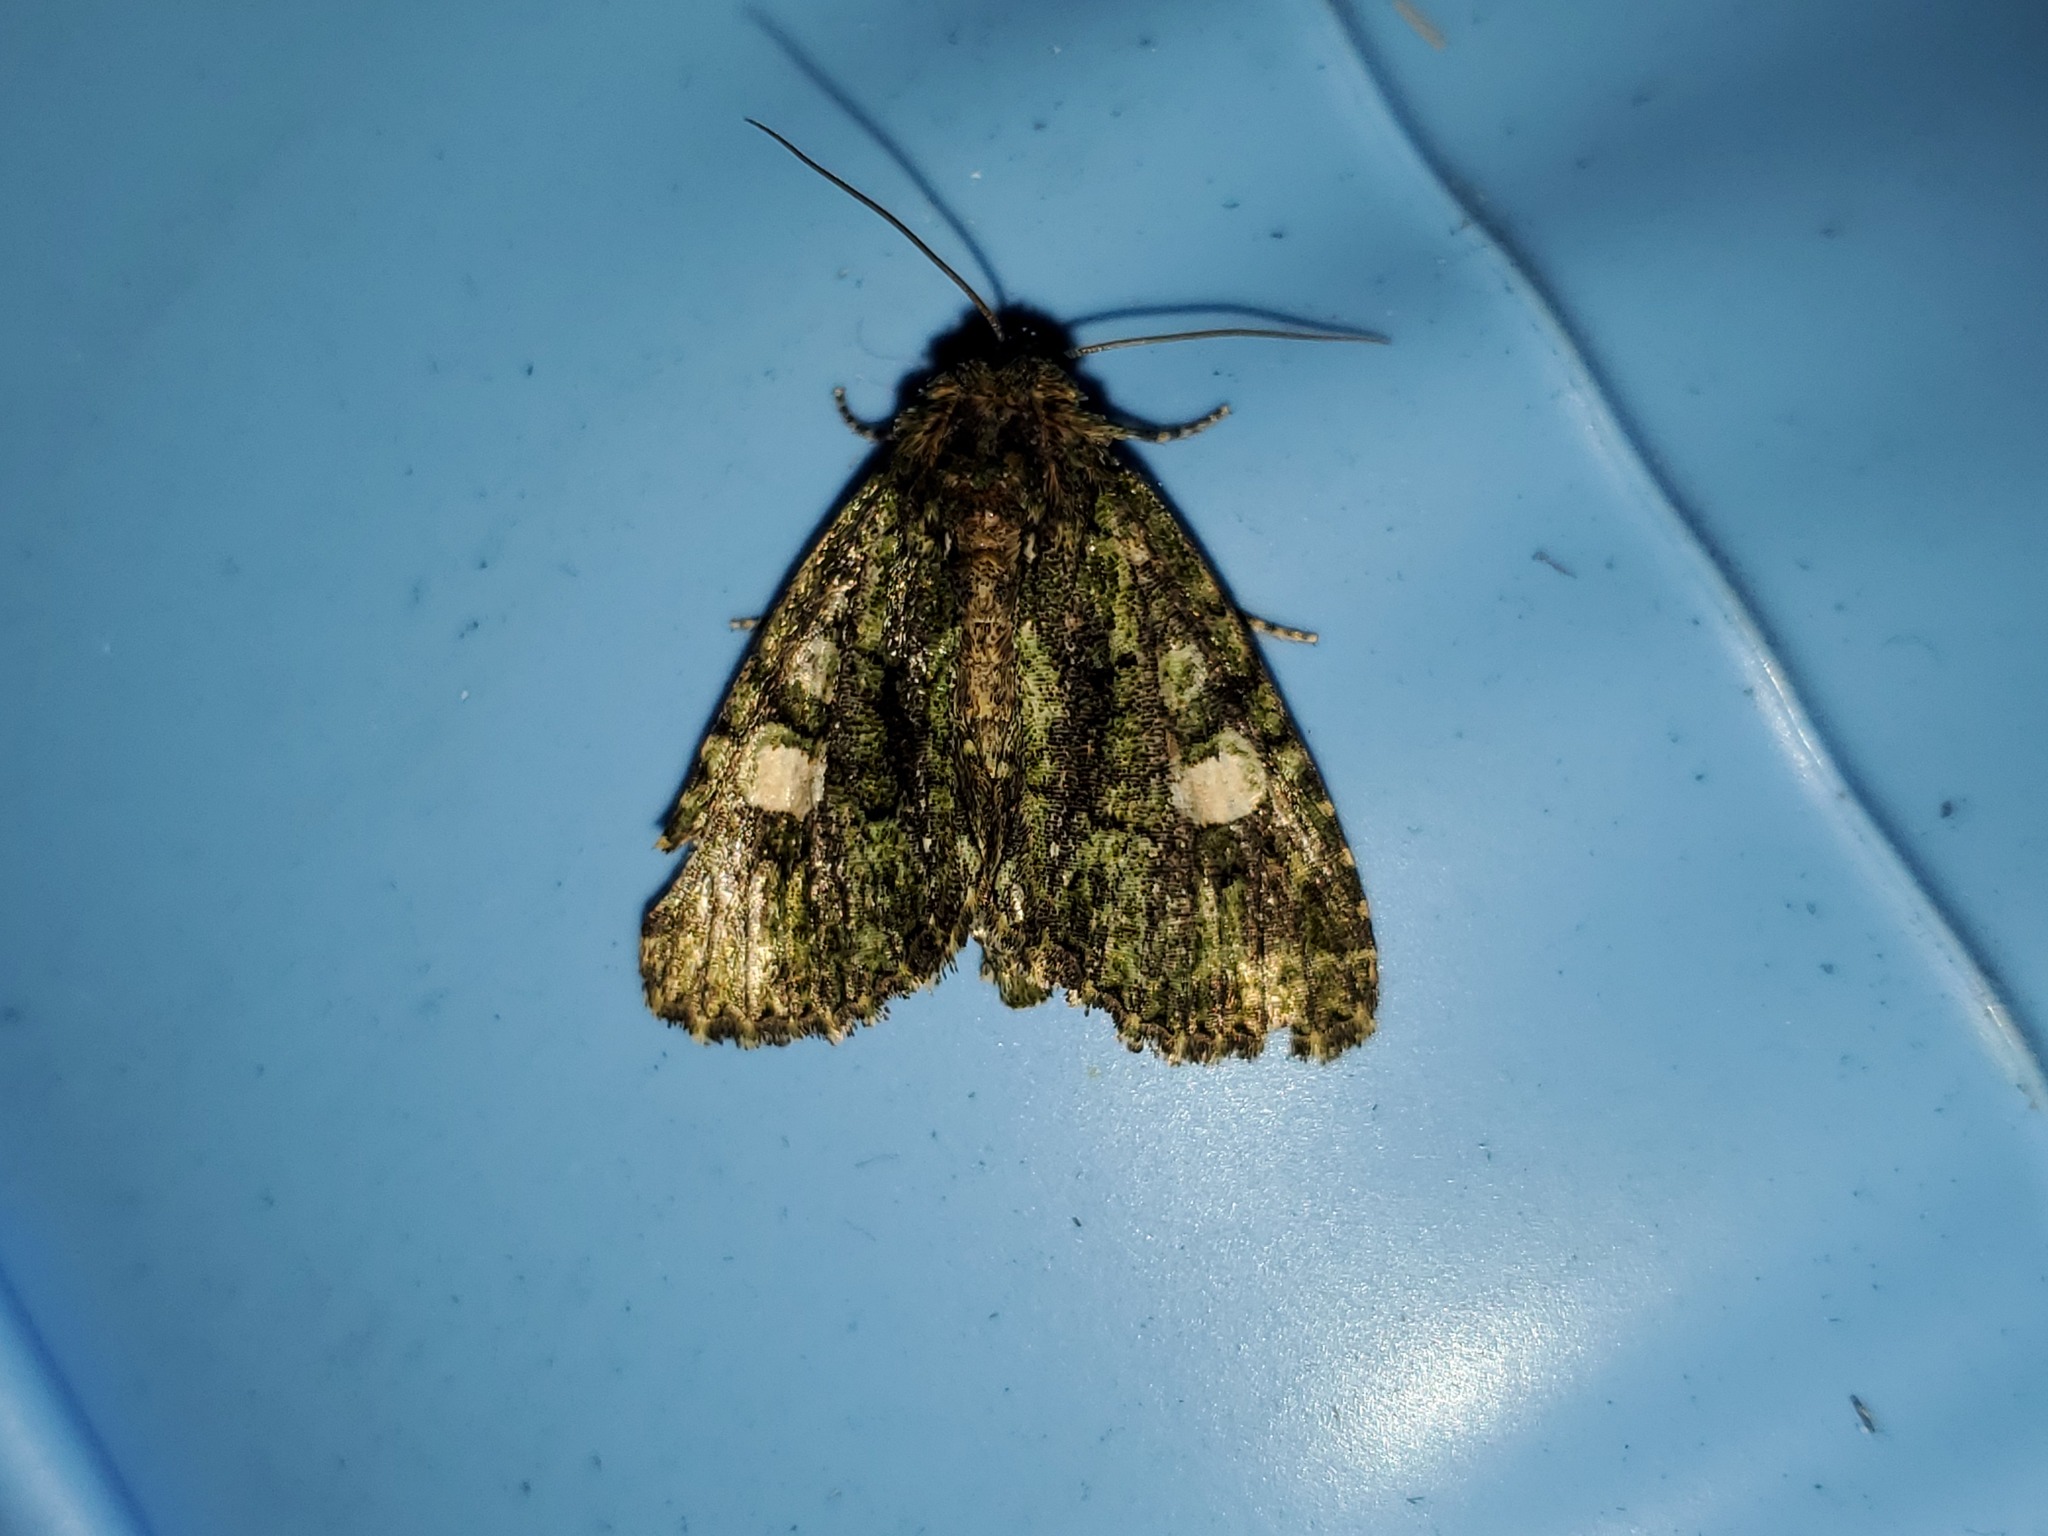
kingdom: Animalia
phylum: Arthropoda
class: Insecta
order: Lepidoptera
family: Noctuidae
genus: Phosphila
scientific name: Phosphila miselioides
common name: Spotted phosphila moth
